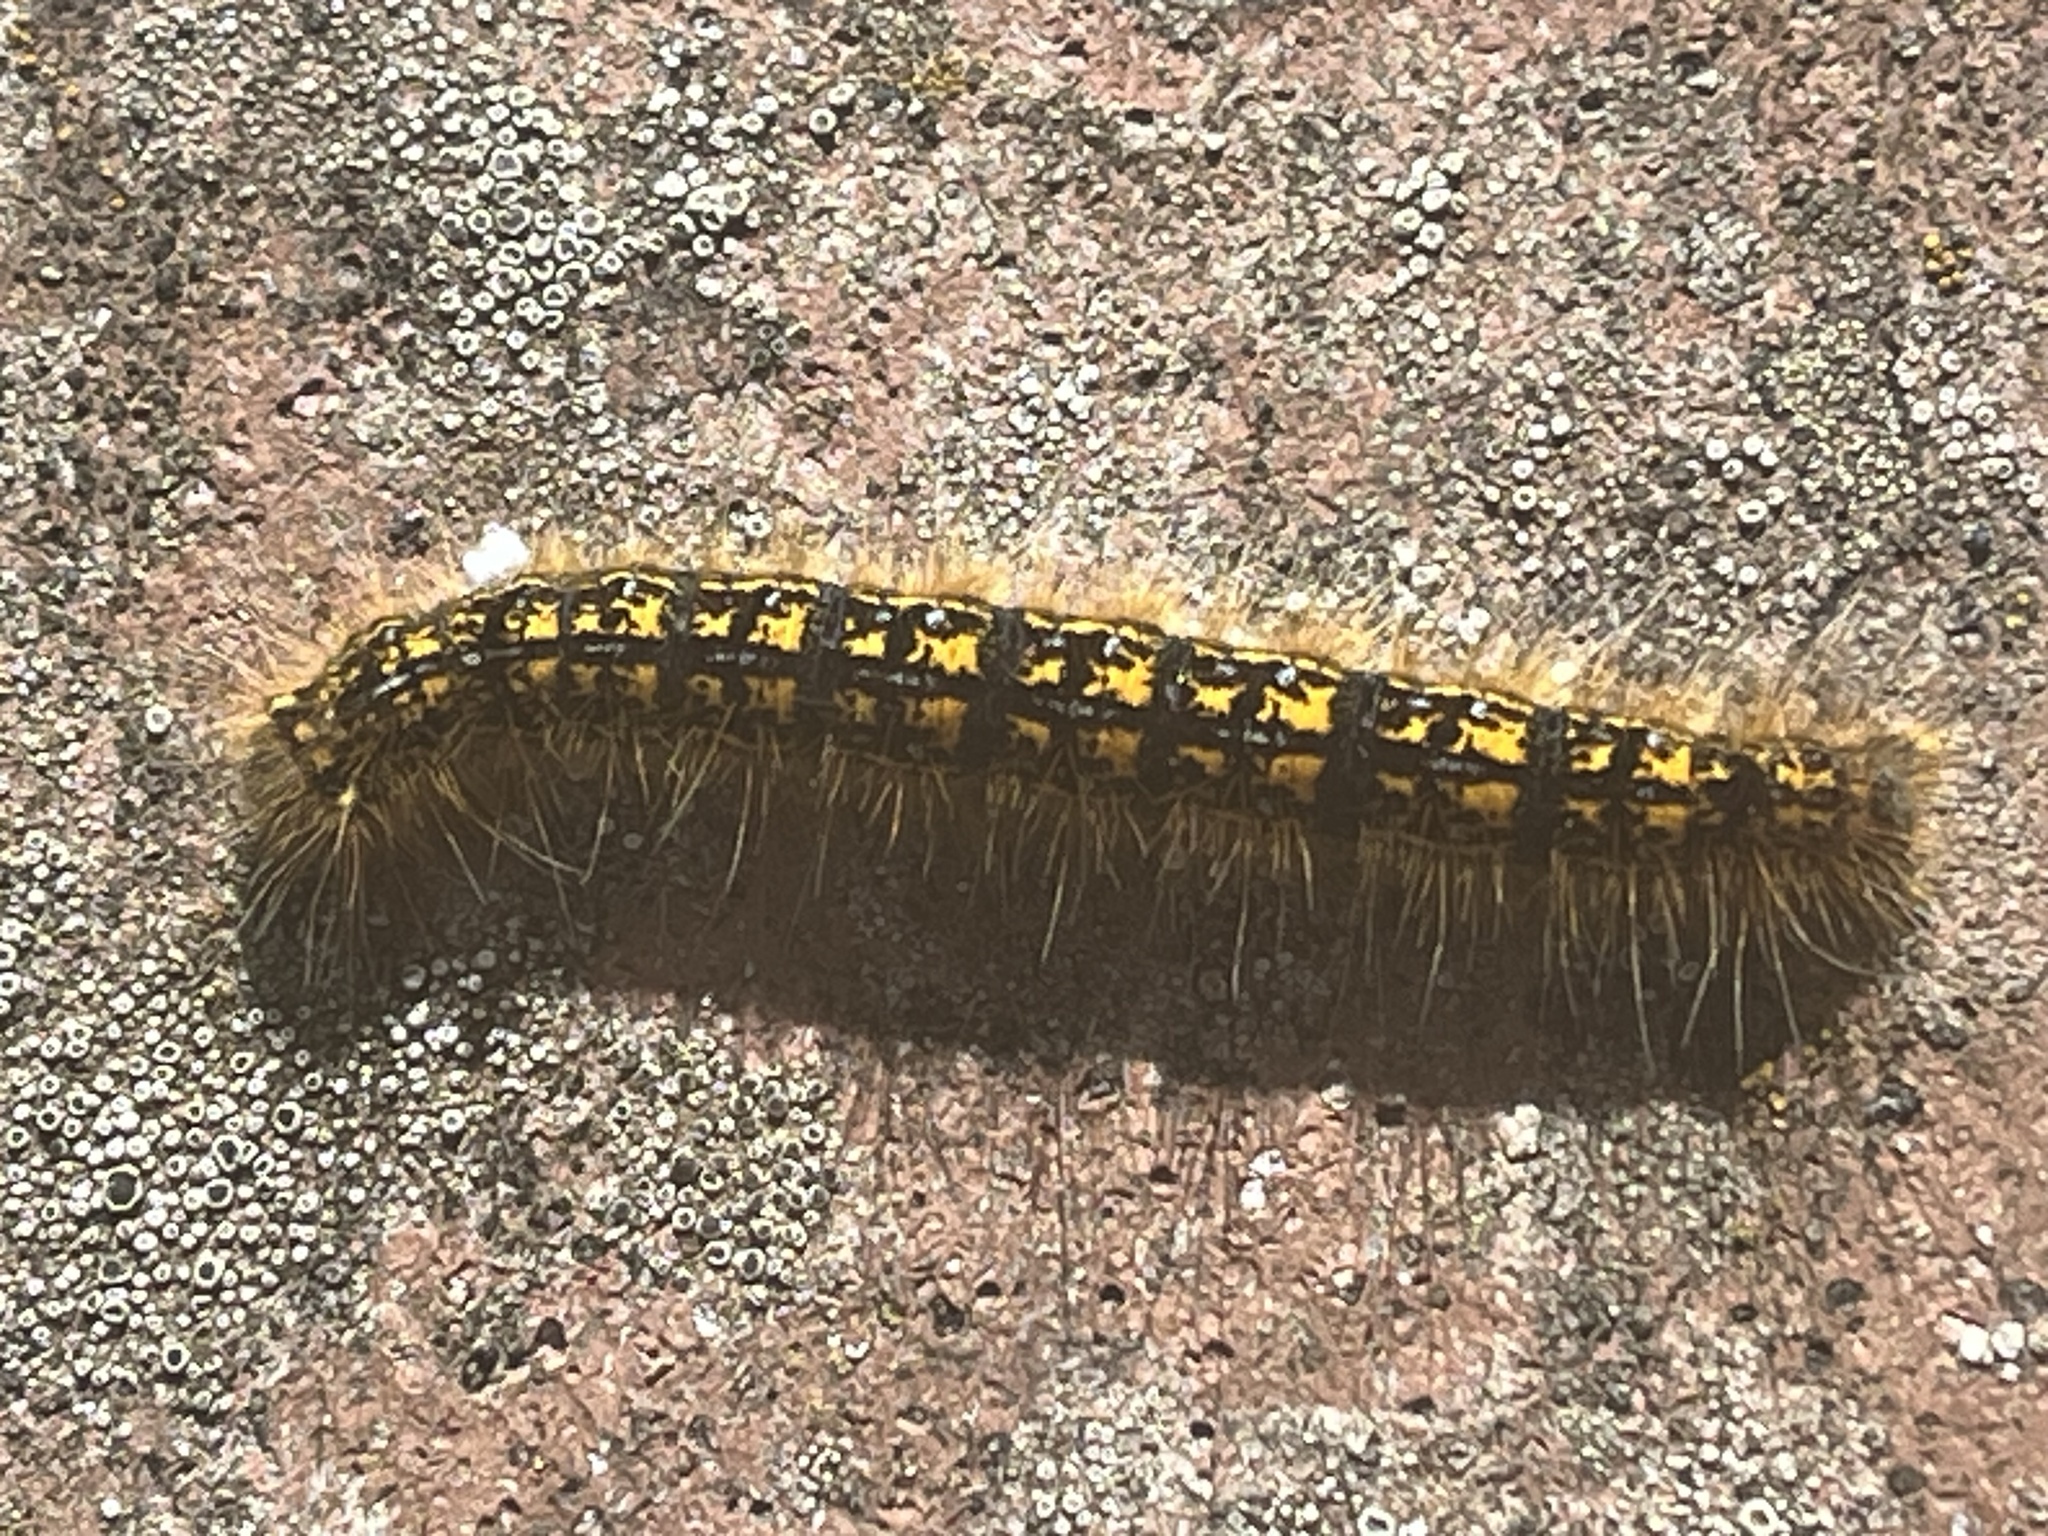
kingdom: Animalia
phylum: Arthropoda
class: Insecta
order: Lepidoptera
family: Lasiocampidae
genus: Malacosoma
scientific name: Malacosoma californica
